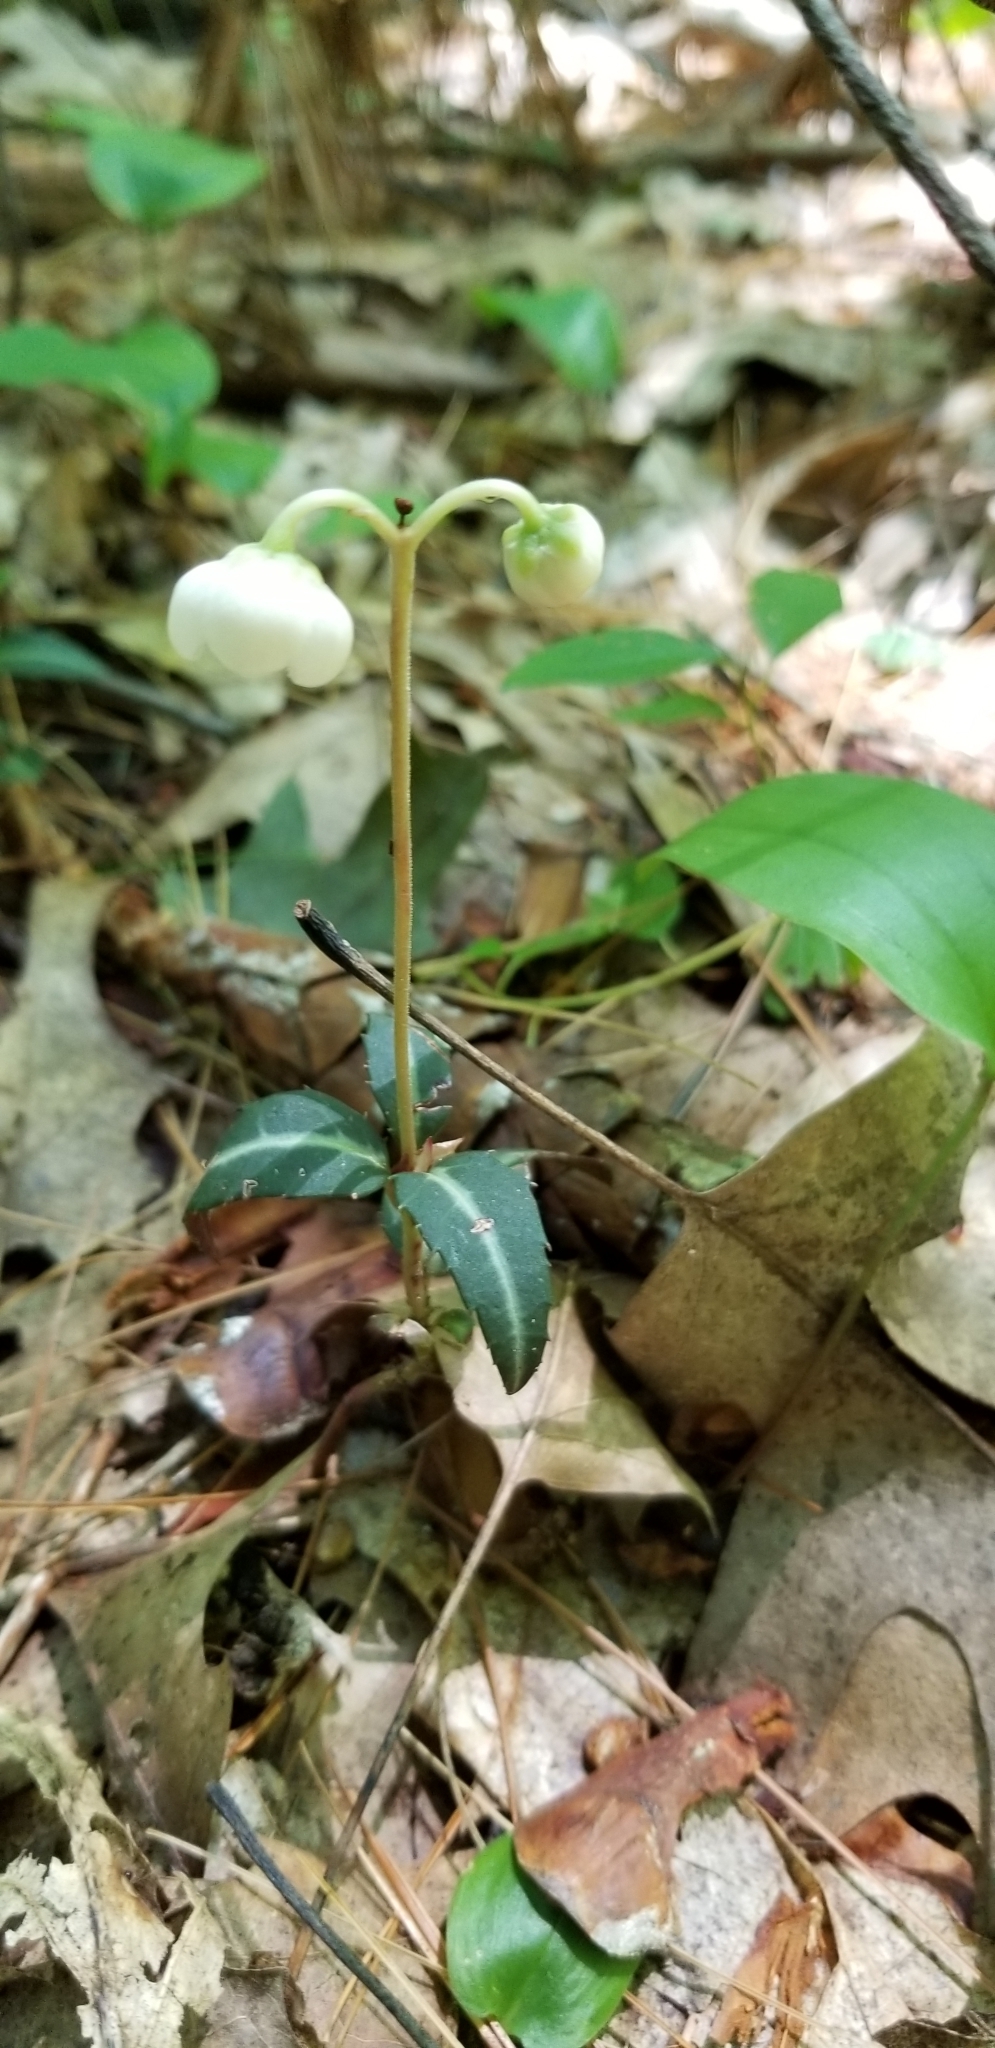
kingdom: Plantae
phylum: Tracheophyta
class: Magnoliopsida
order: Ericales
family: Ericaceae
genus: Chimaphila
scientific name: Chimaphila maculata
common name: Spotted pipsissewa
